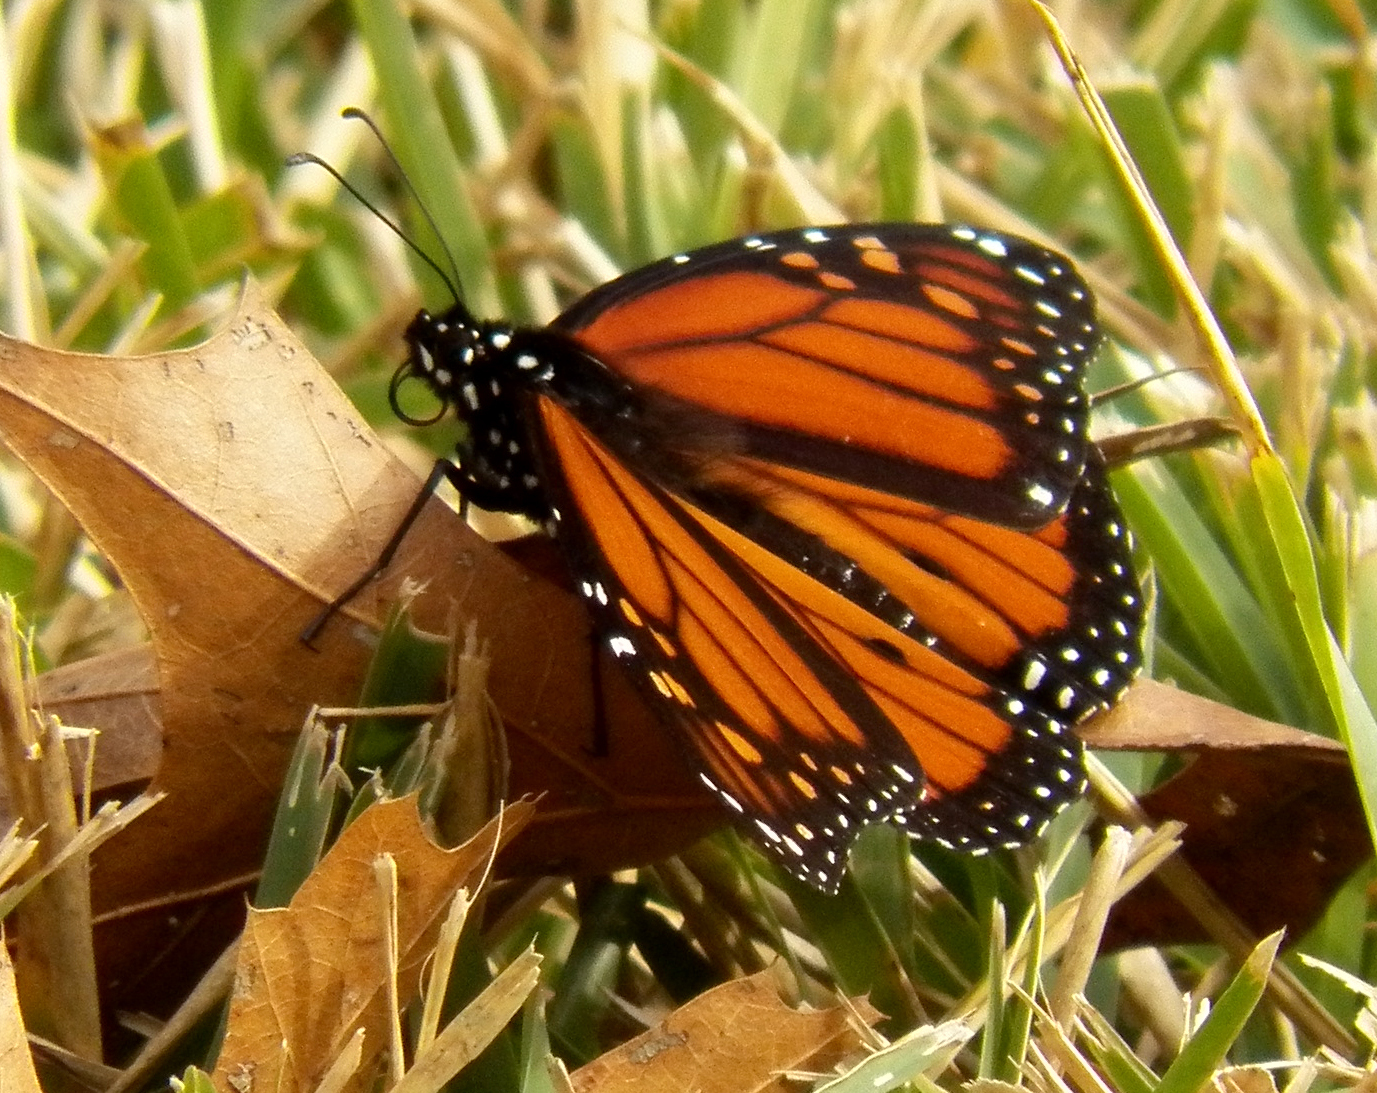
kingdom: Animalia
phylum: Arthropoda
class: Insecta
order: Lepidoptera
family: Nymphalidae
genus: Danaus
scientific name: Danaus plexippus
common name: Monarch
